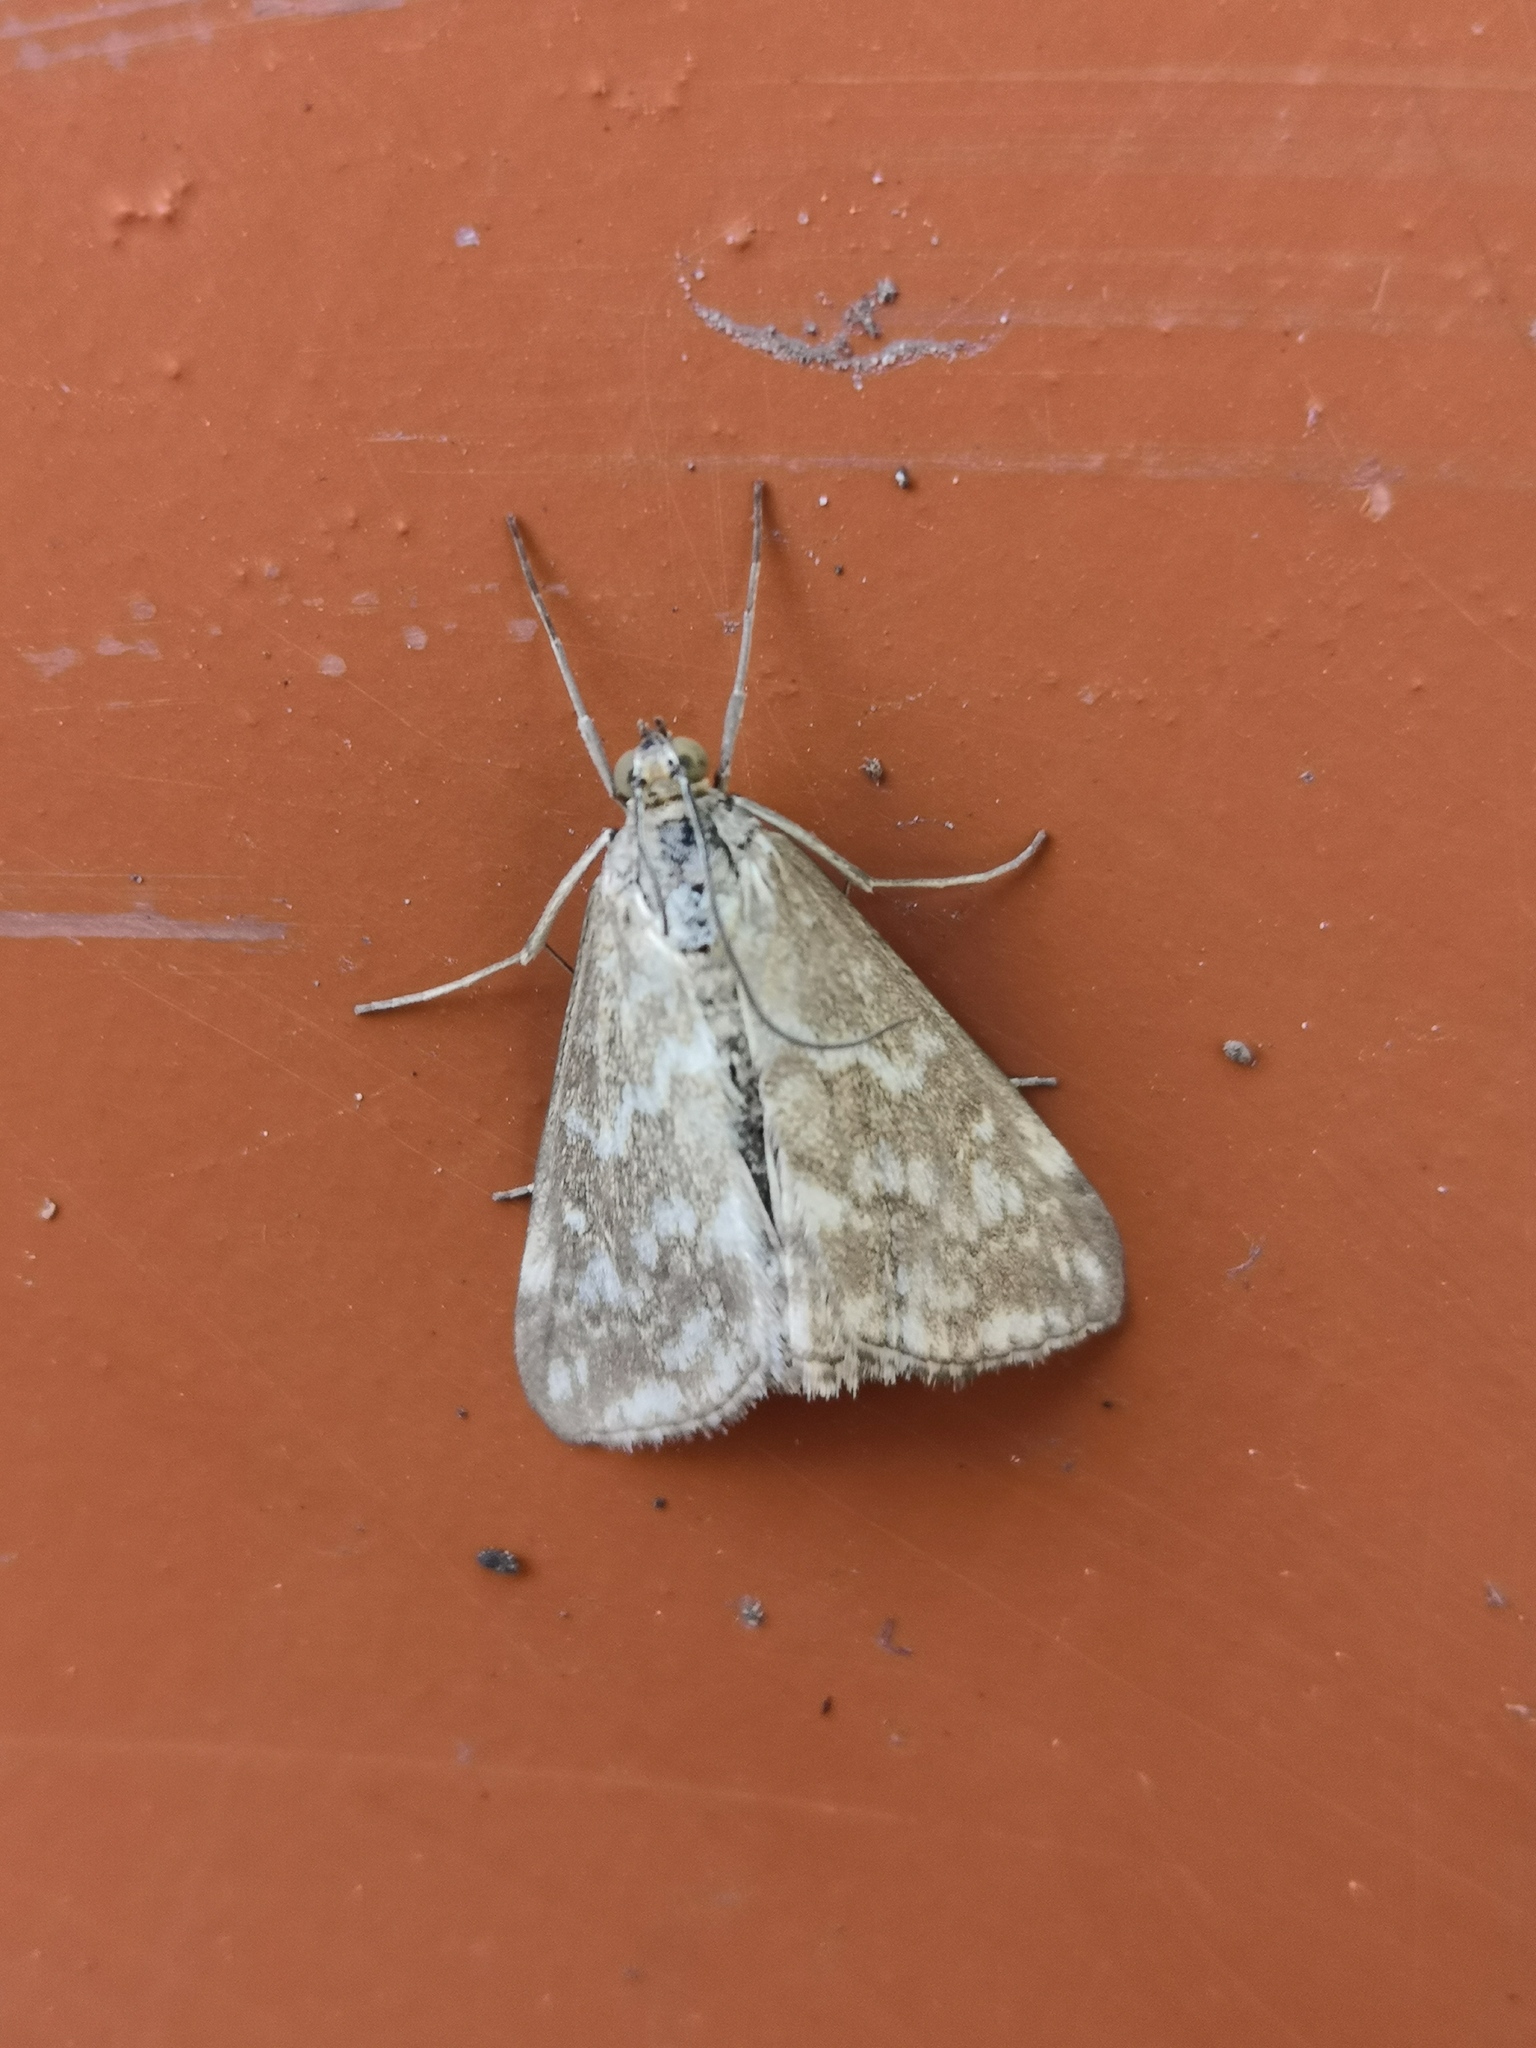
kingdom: Animalia
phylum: Arthropoda
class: Insecta
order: Lepidoptera
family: Crambidae
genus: Evergestis
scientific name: Evergestis frumentalis
